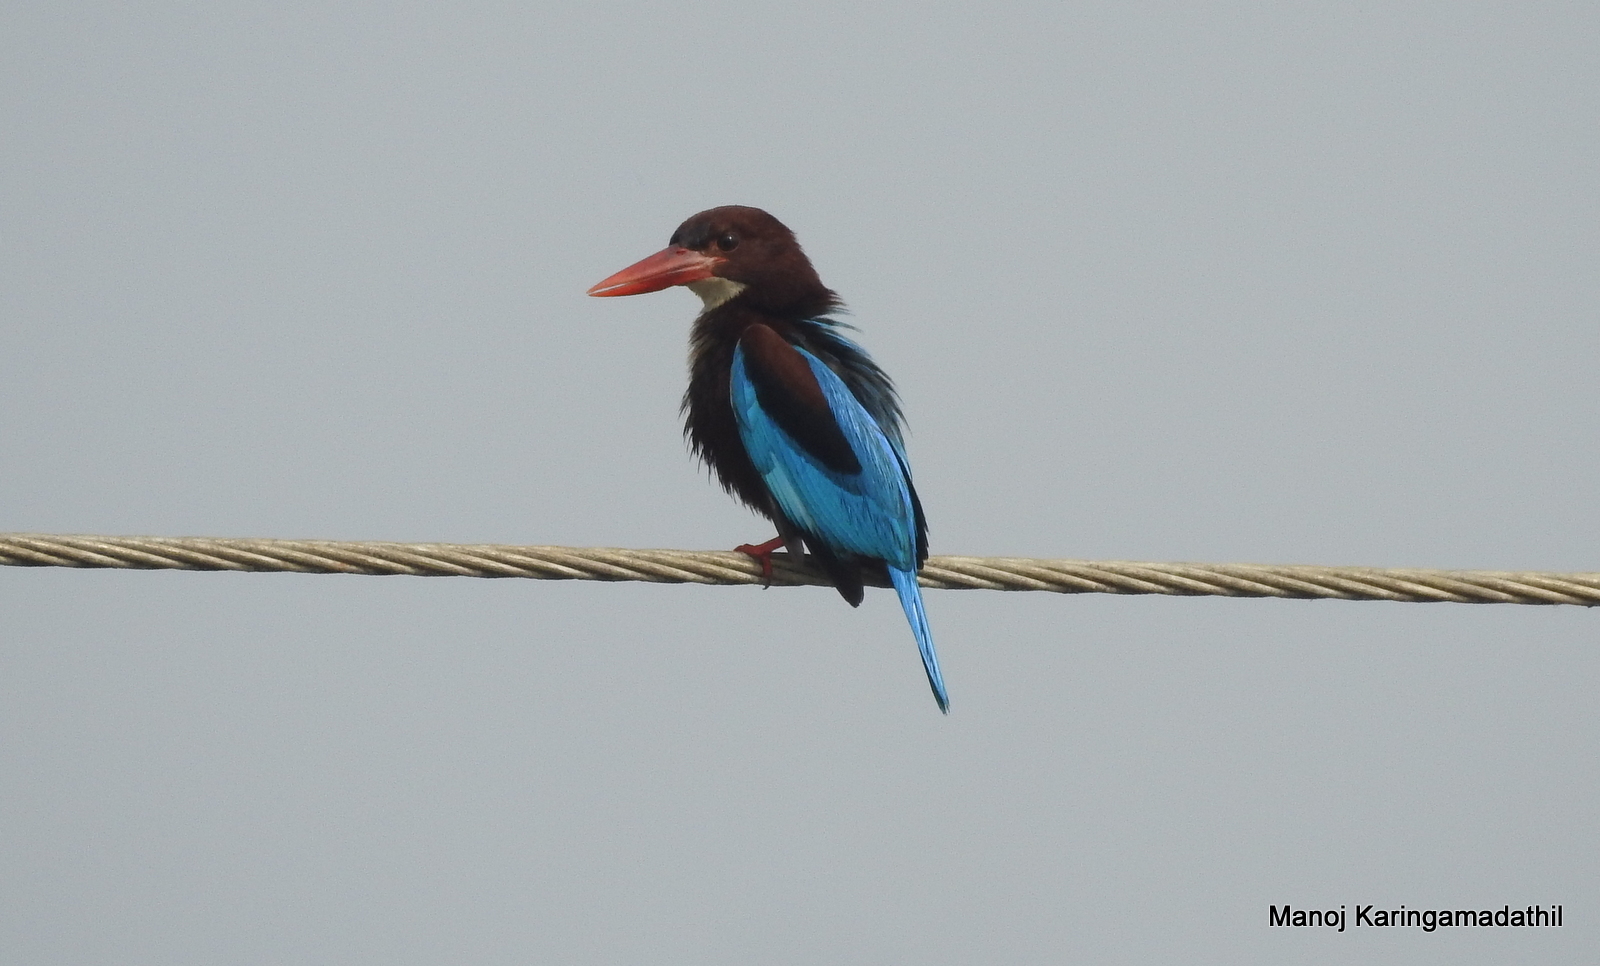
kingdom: Animalia
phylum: Chordata
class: Aves
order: Coraciiformes
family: Alcedinidae
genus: Halcyon
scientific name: Halcyon smyrnensis
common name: White-throated kingfisher
